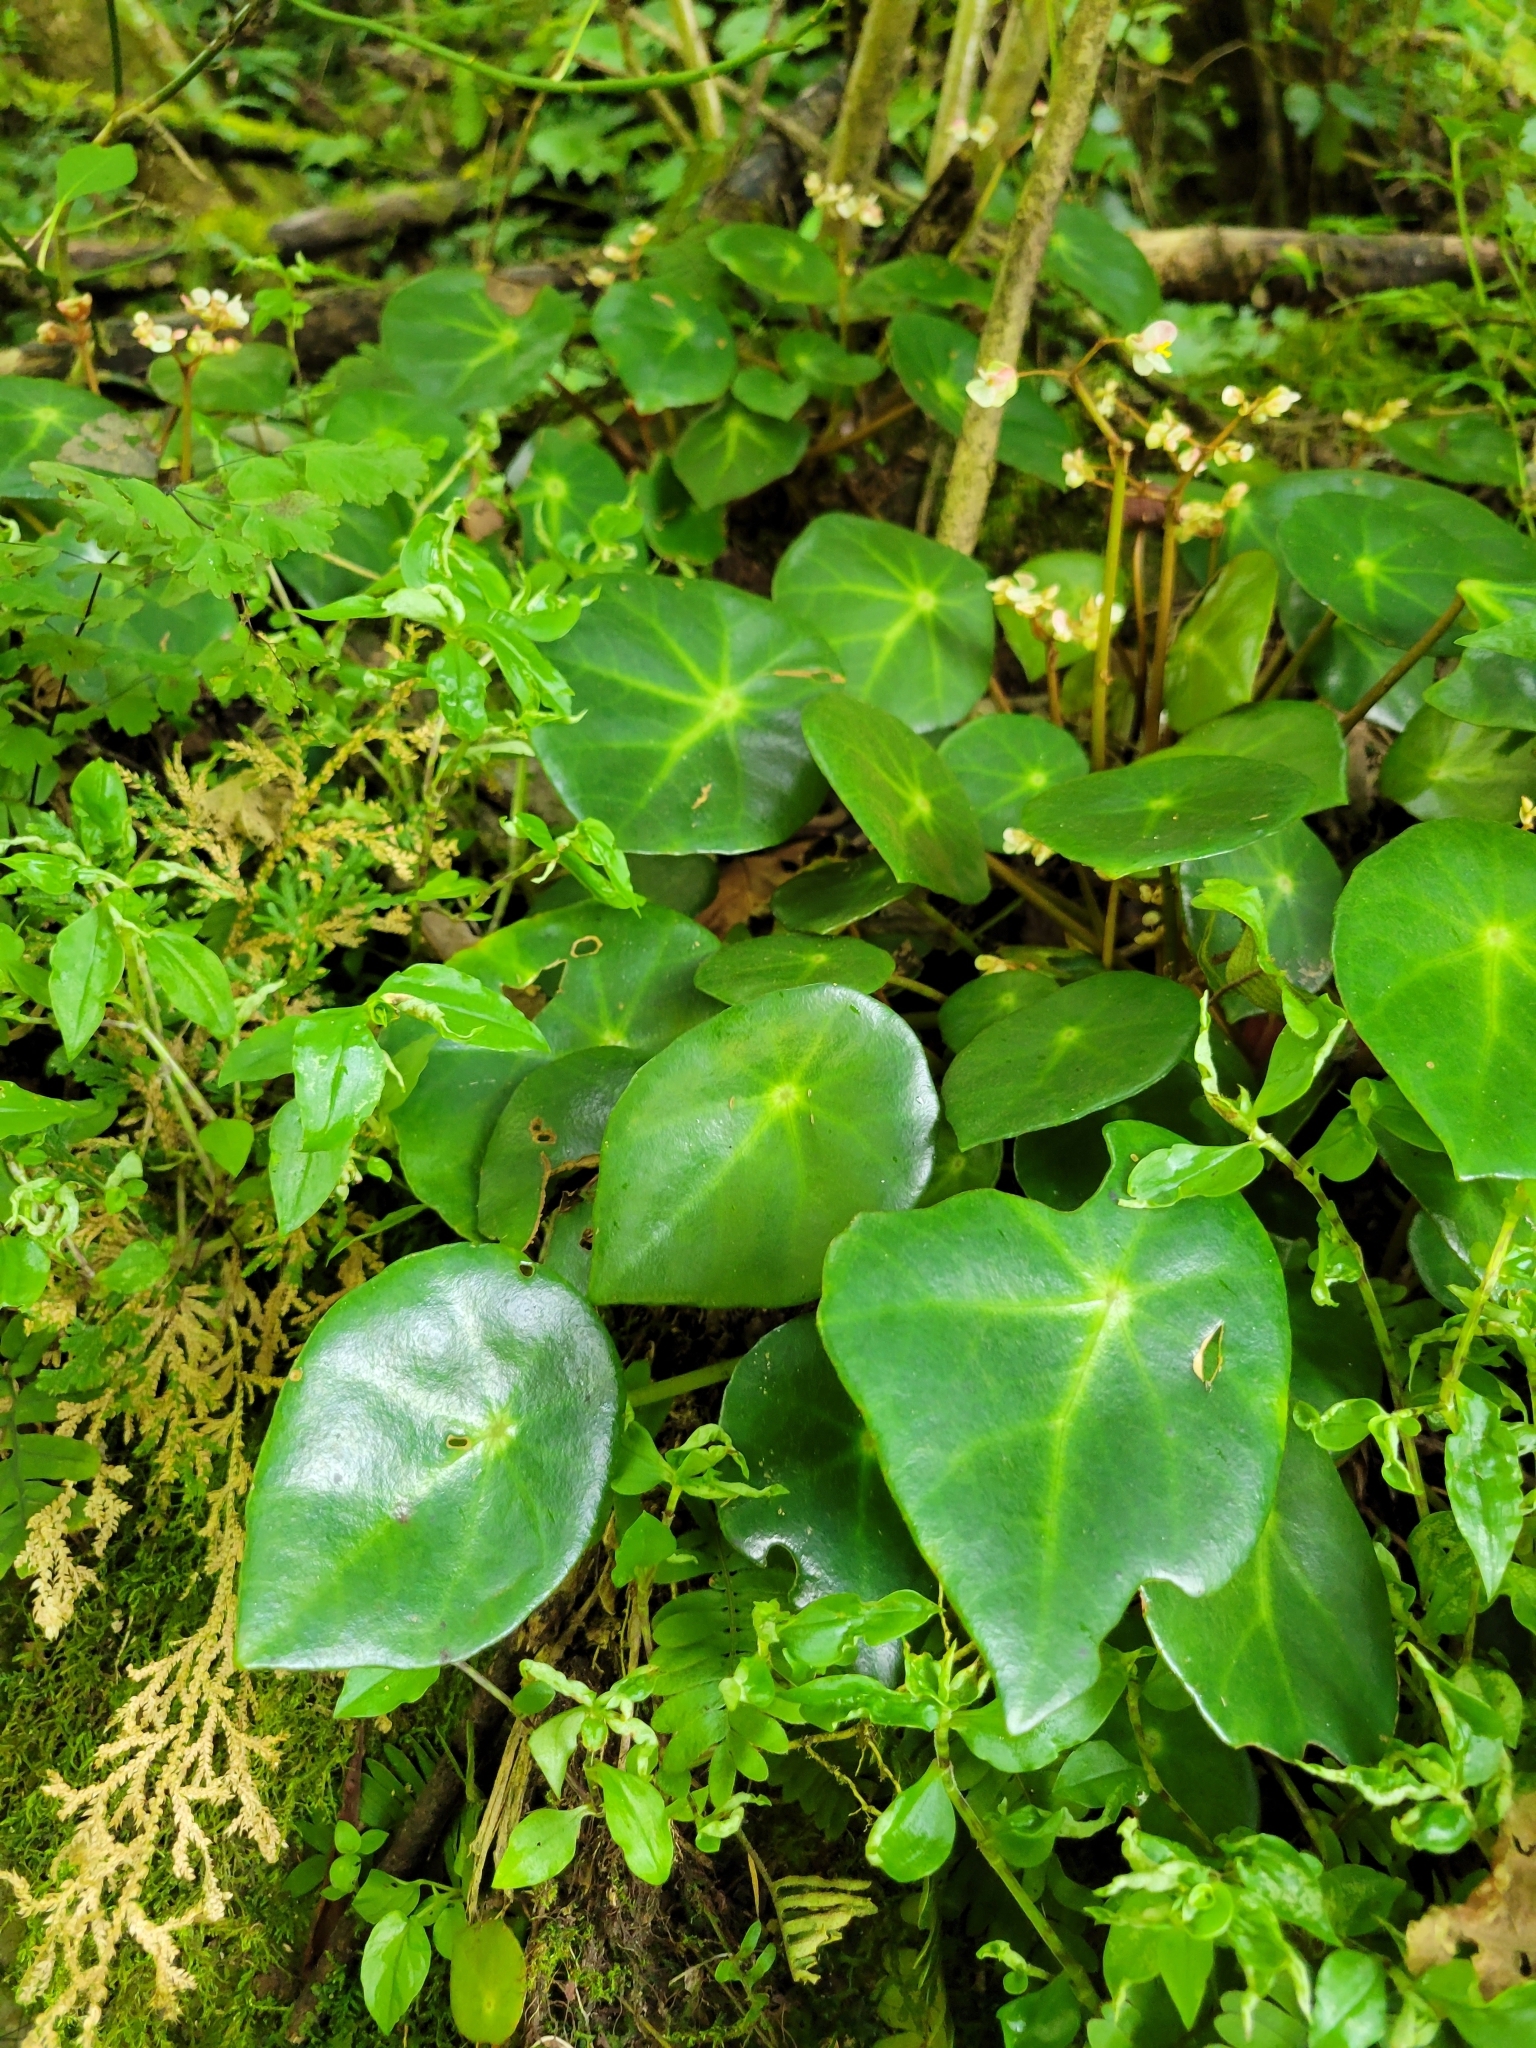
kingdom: Plantae
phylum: Tracheophyta
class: Magnoliopsida
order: Cucurbitales
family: Begoniaceae
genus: Begonia
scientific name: Begonia conchifolia
